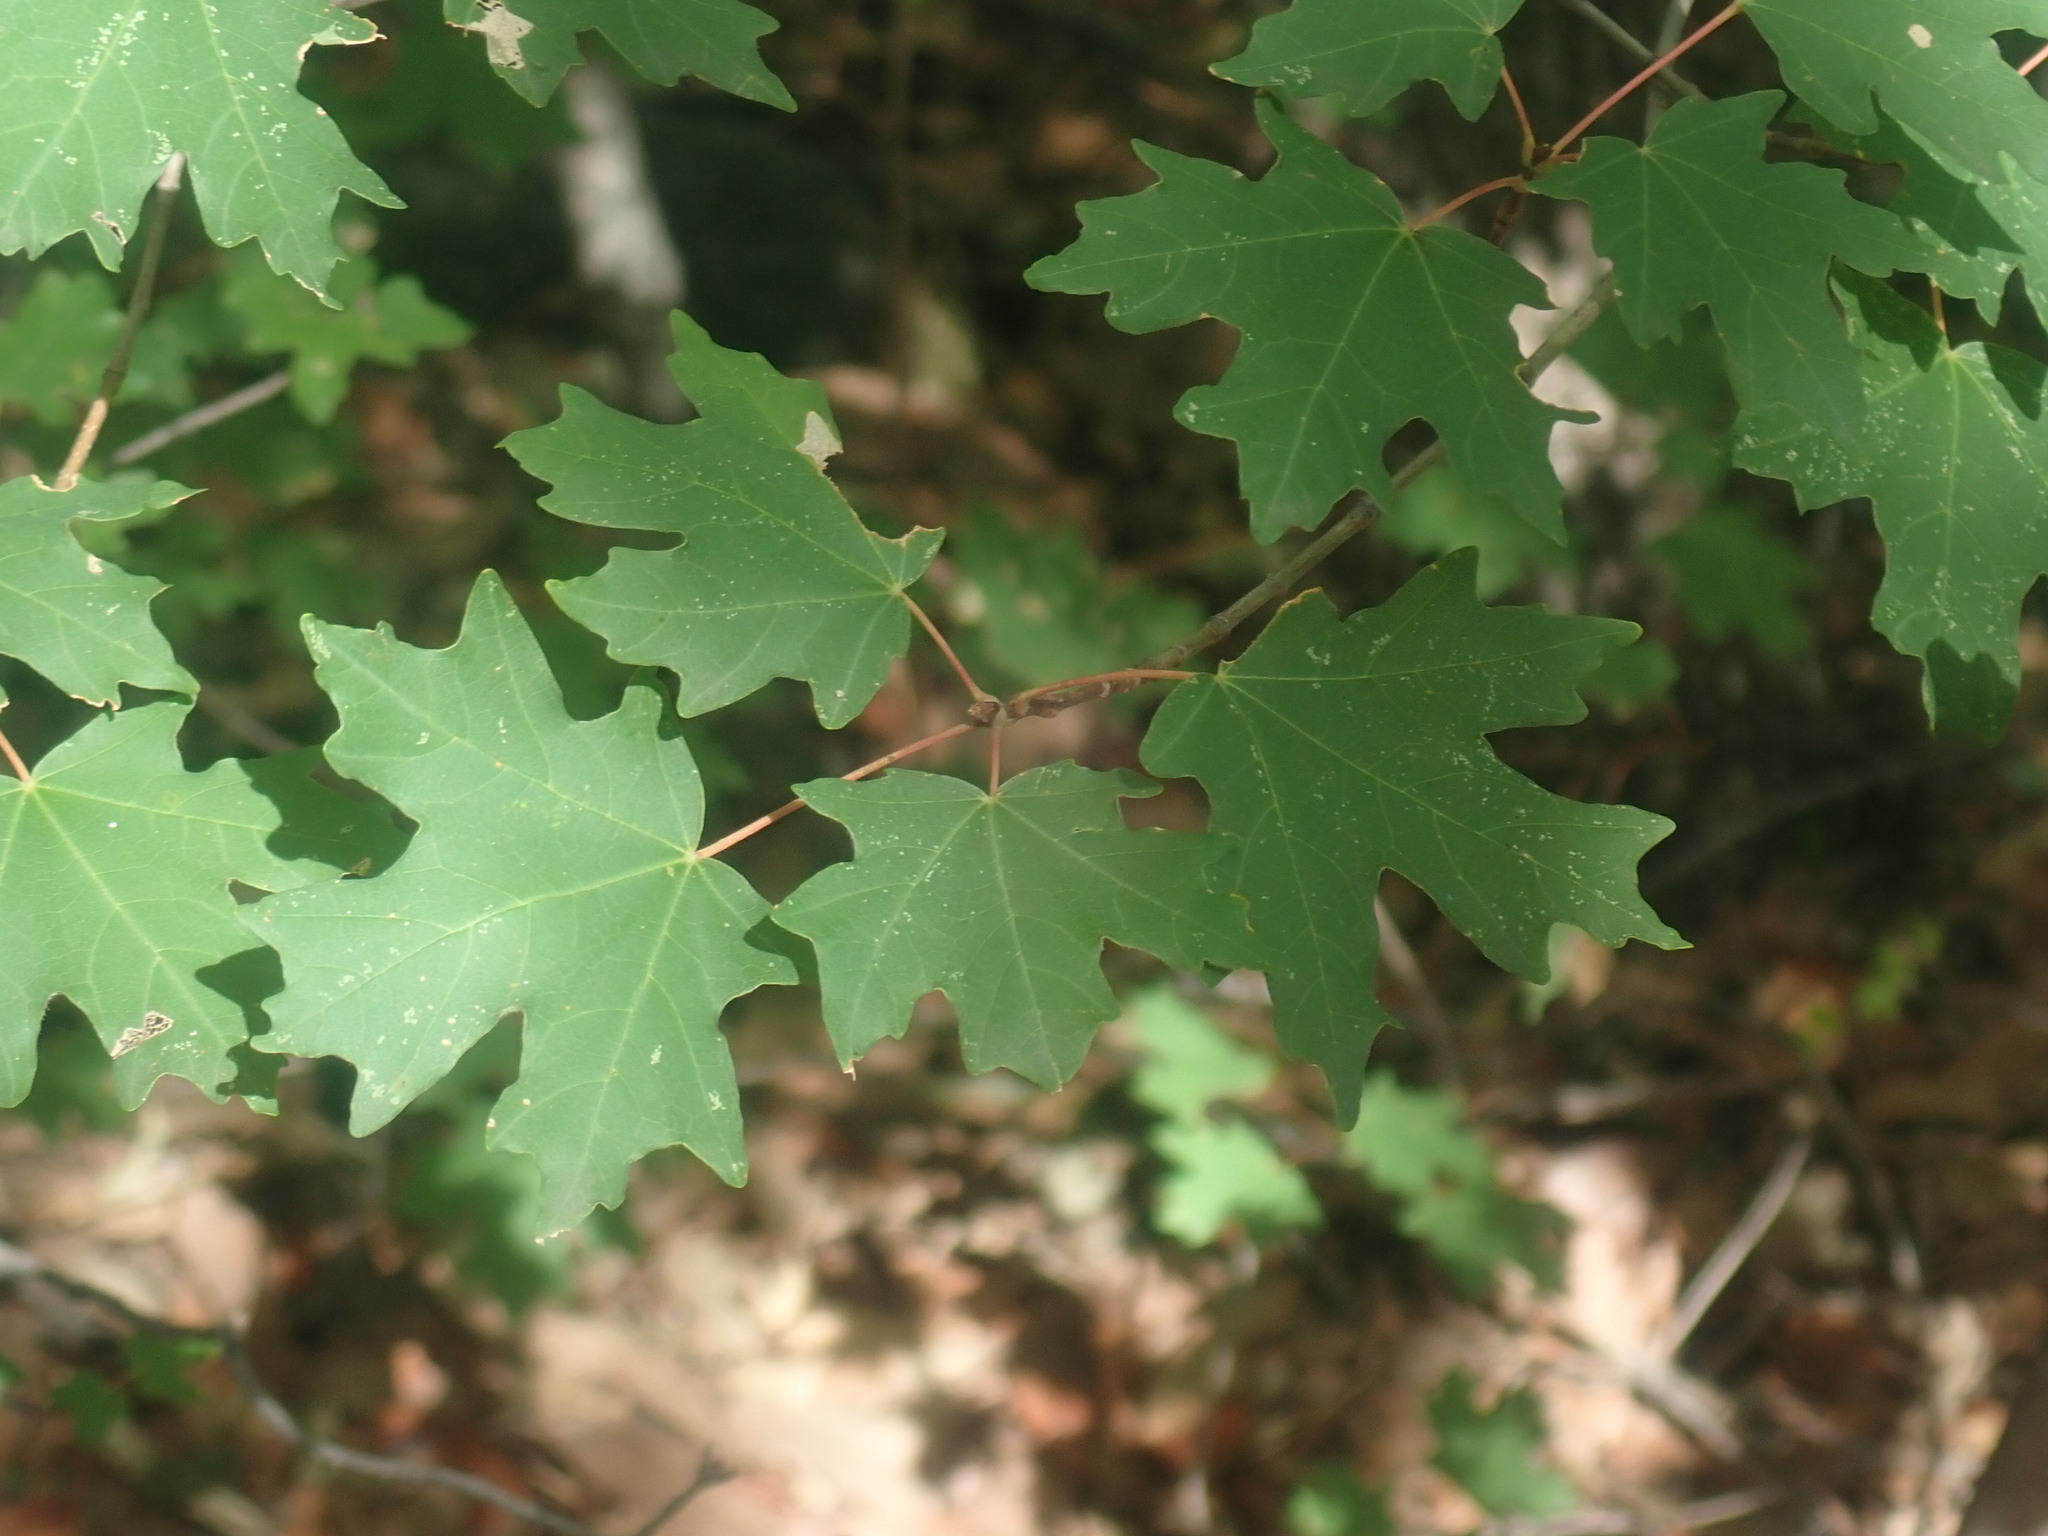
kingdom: Plantae
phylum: Tracheophyta
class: Magnoliopsida
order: Sapindales
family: Sapindaceae
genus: Acer
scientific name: Acer grandidentatum
